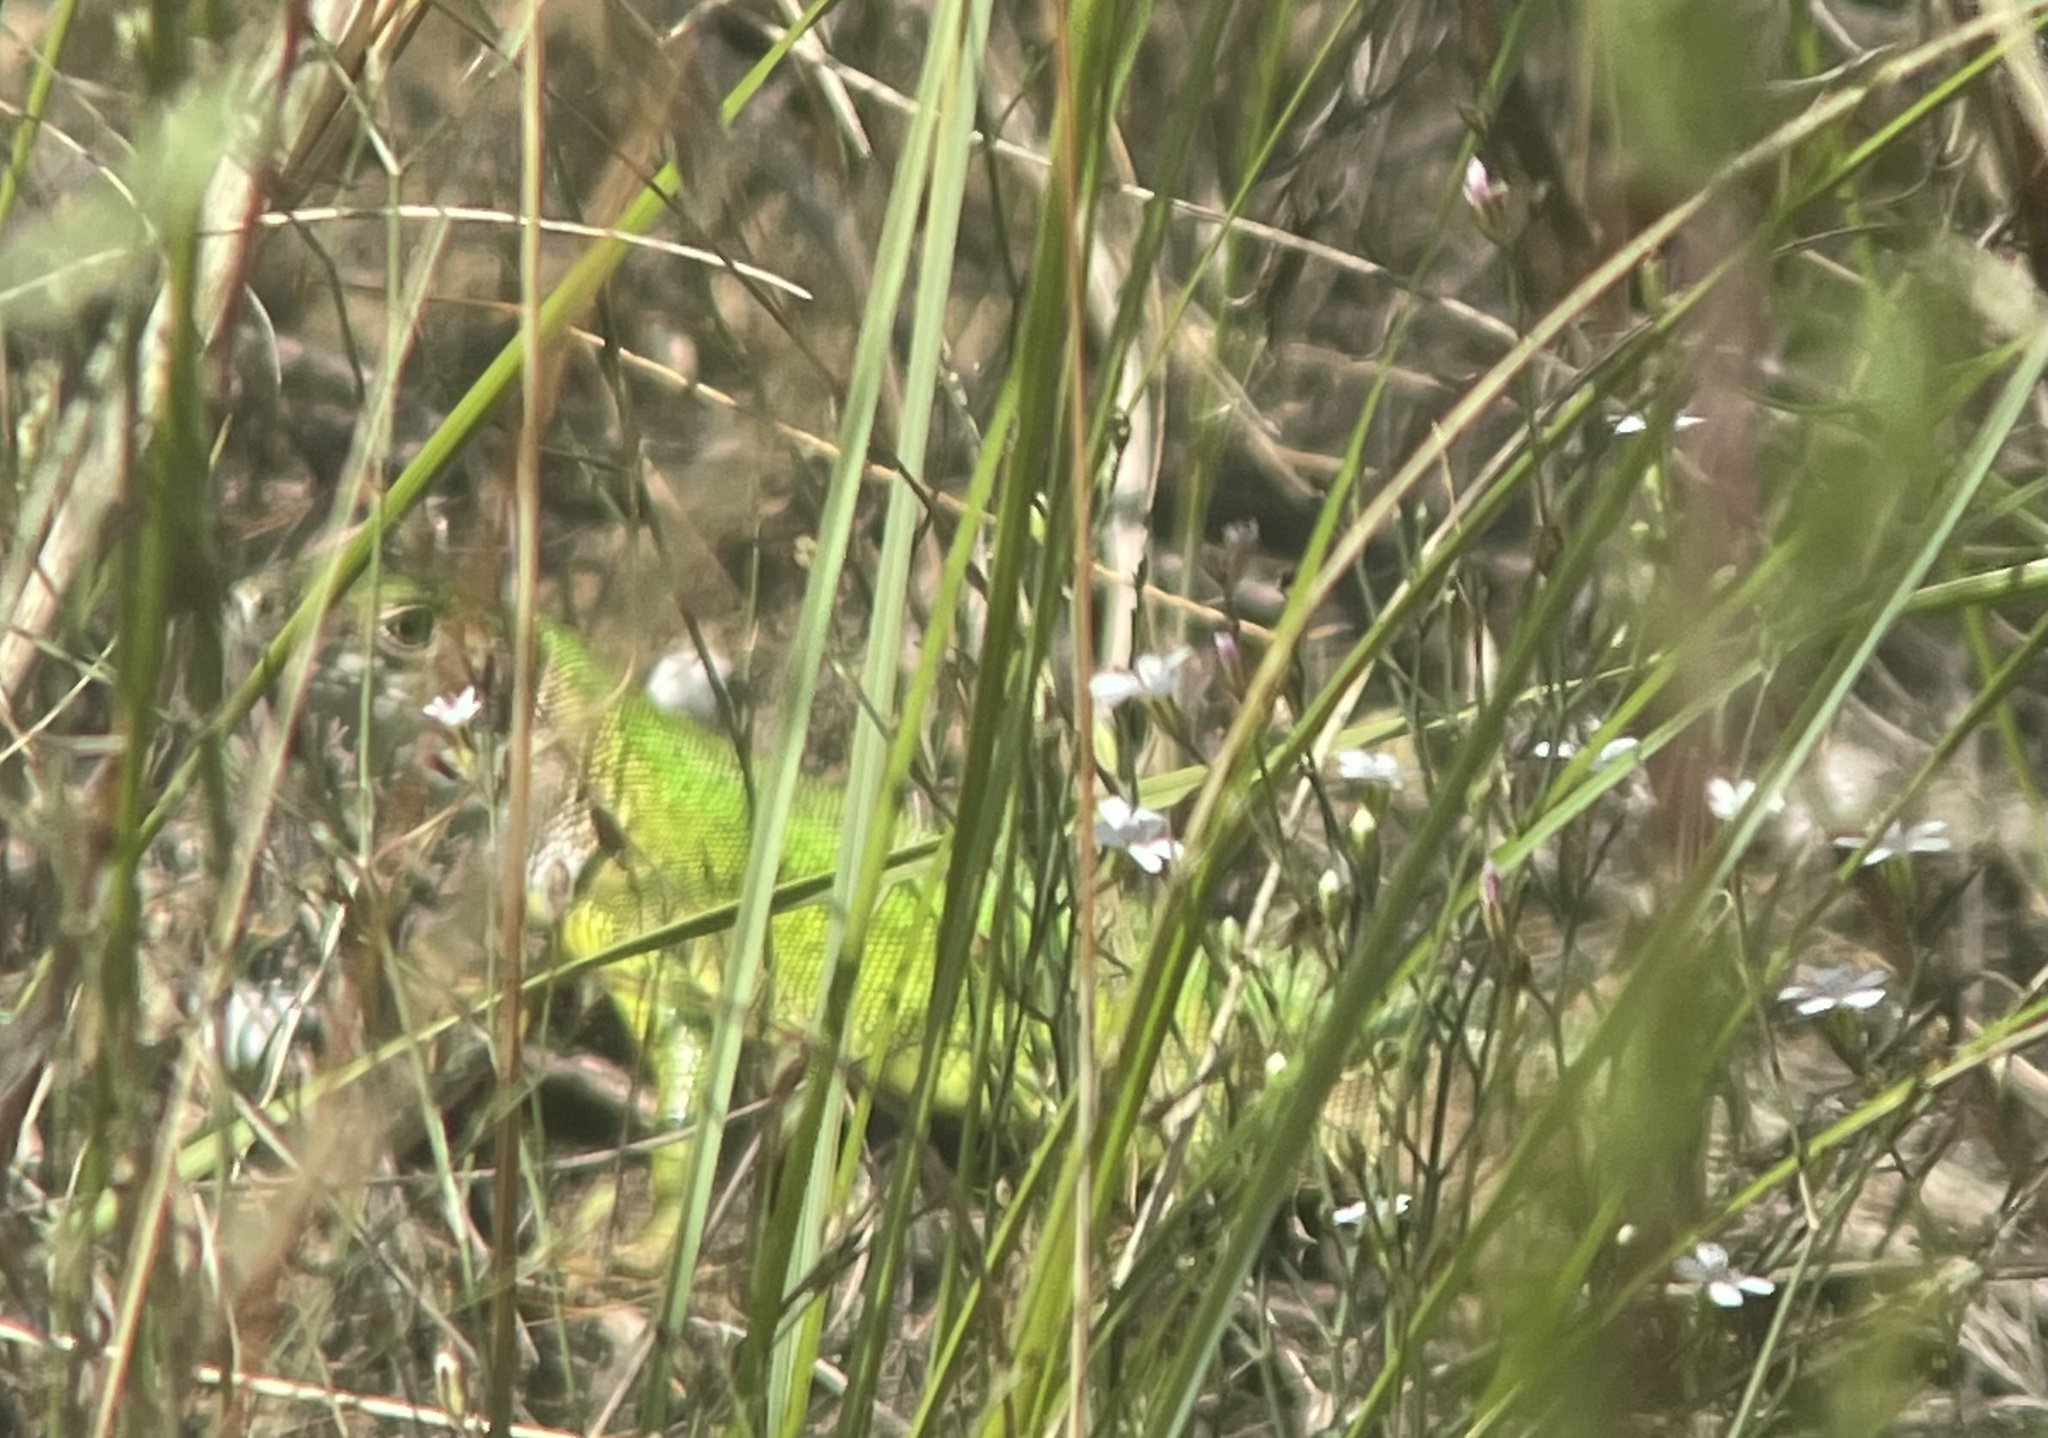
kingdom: Animalia
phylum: Chordata
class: Squamata
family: Lacertidae
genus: Lacerta
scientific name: Lacerta viridis
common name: European green lizard
